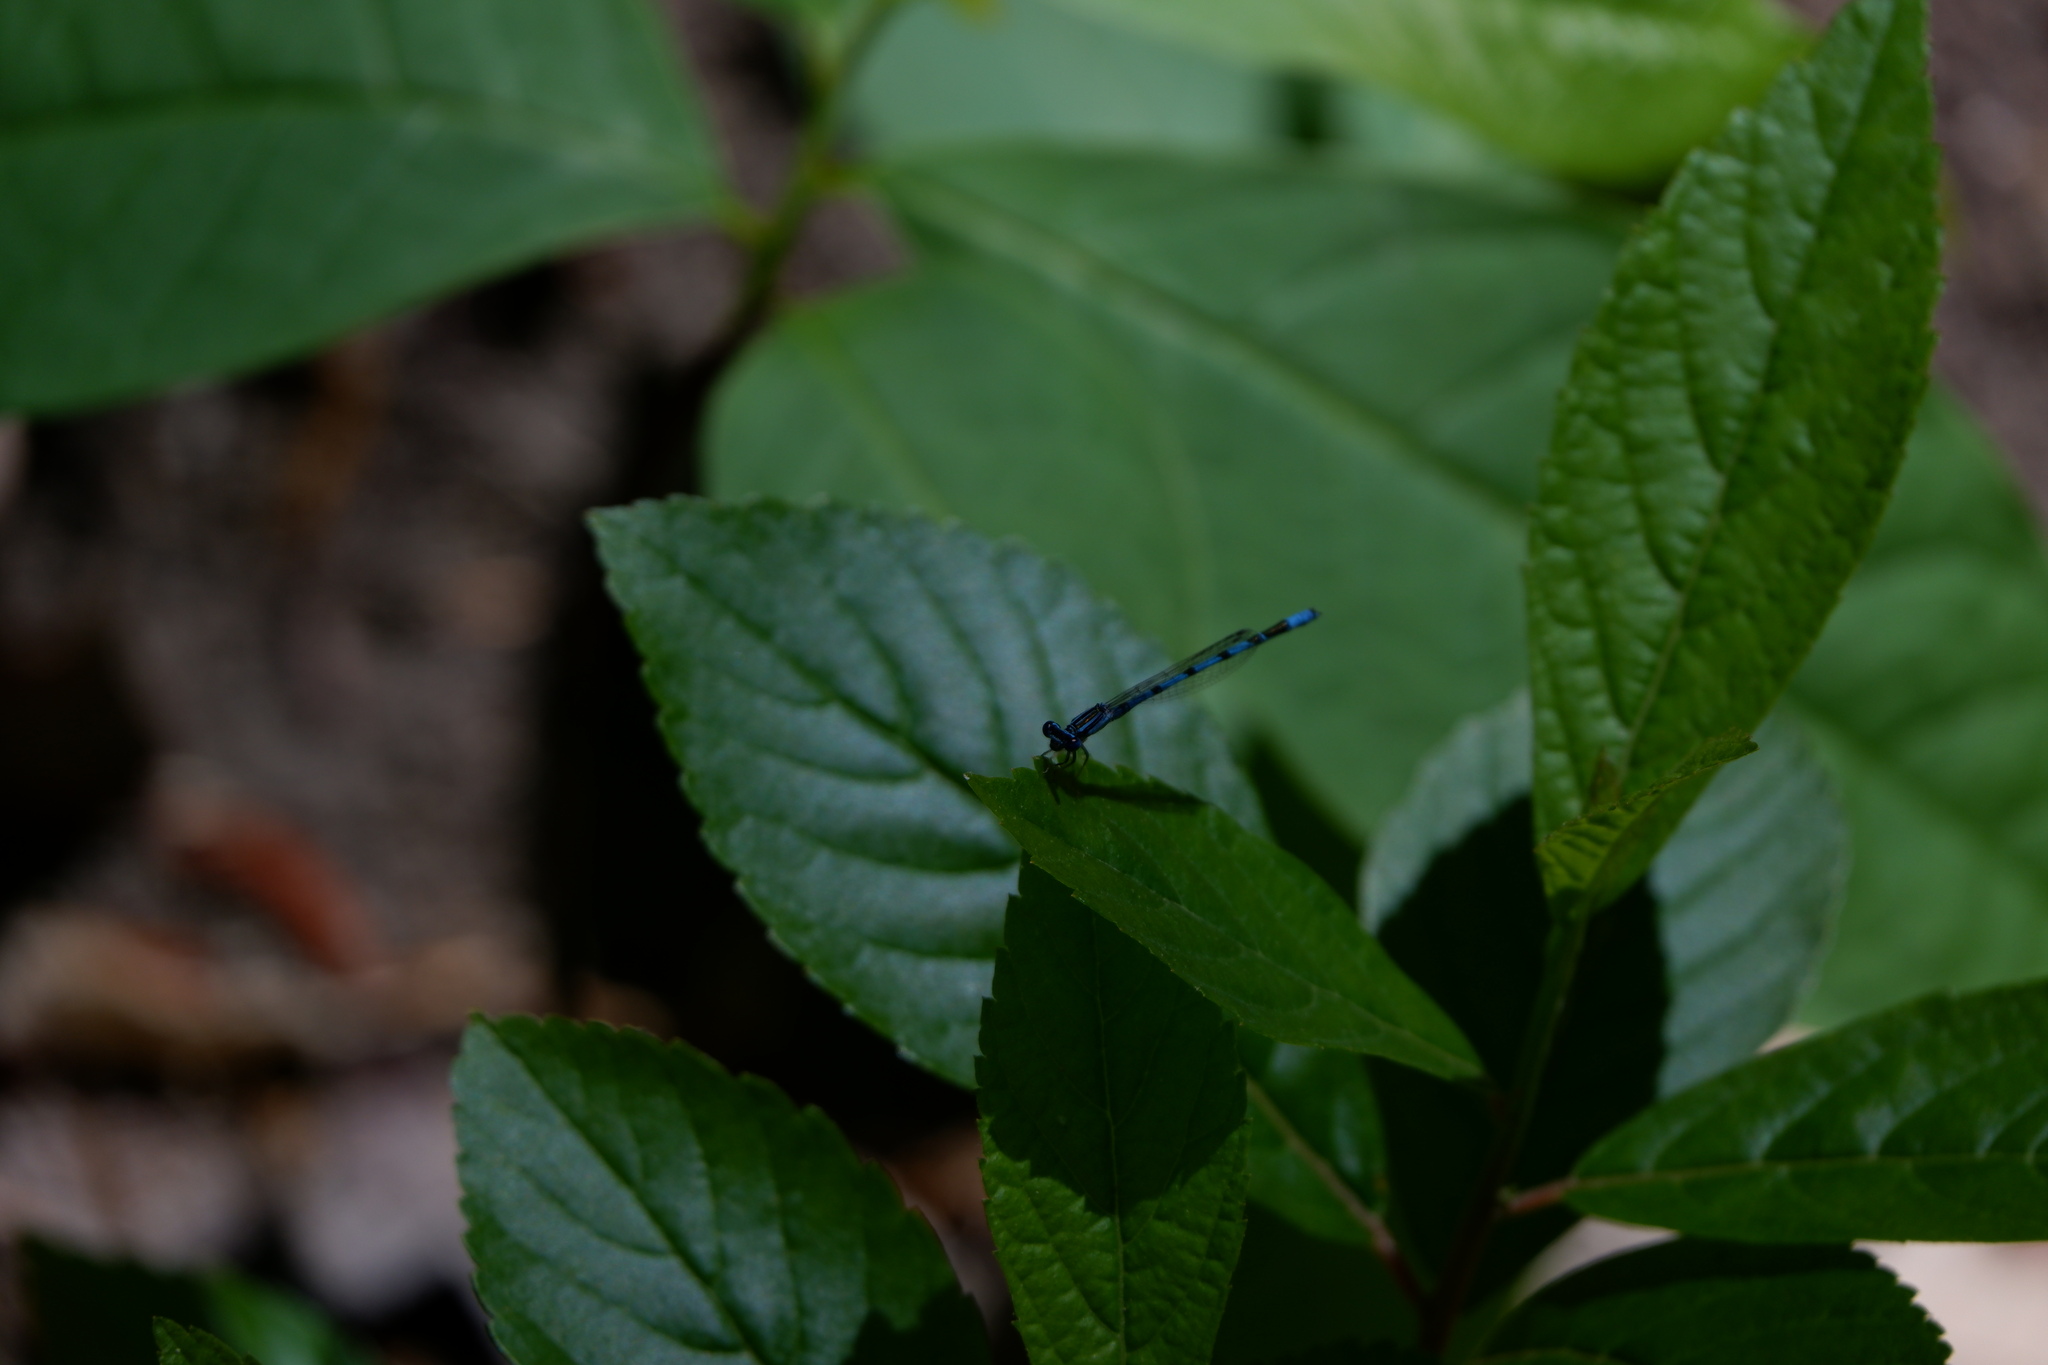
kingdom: Animalia
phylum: Arthropoda
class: Insecta
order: Odonata
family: Coenagrionidae
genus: Enallagma
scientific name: Enallagma basidens
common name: Double-striped bluet
